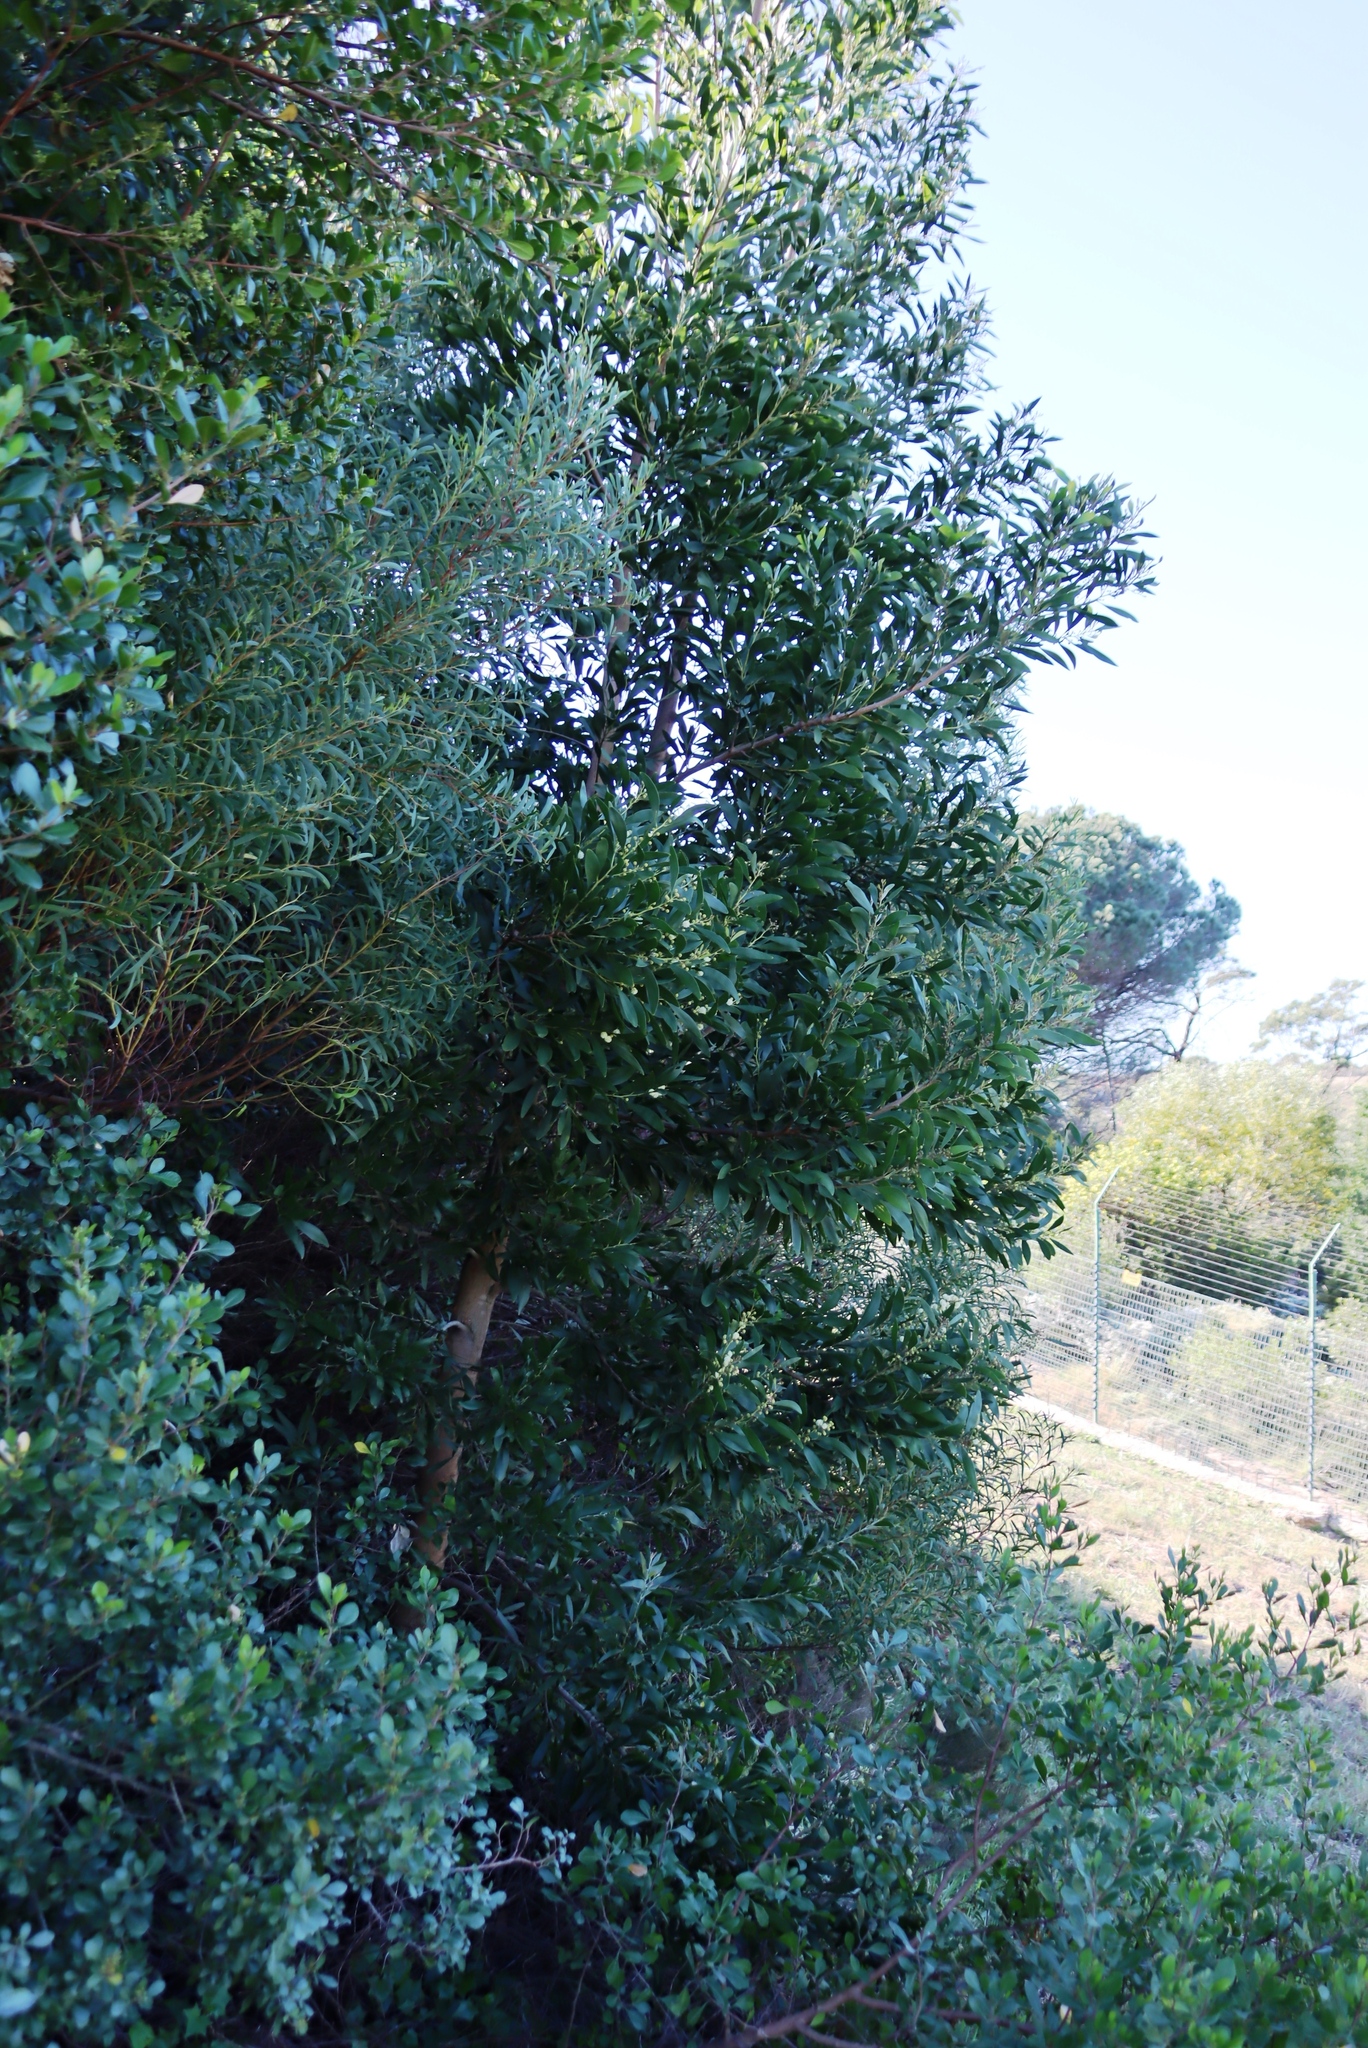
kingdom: Plantae
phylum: Tracheophyta
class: Magnoliopsida
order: Fabales
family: Fabaceae
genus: Acacia
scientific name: Acacia melanoxylon
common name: Blackwood
